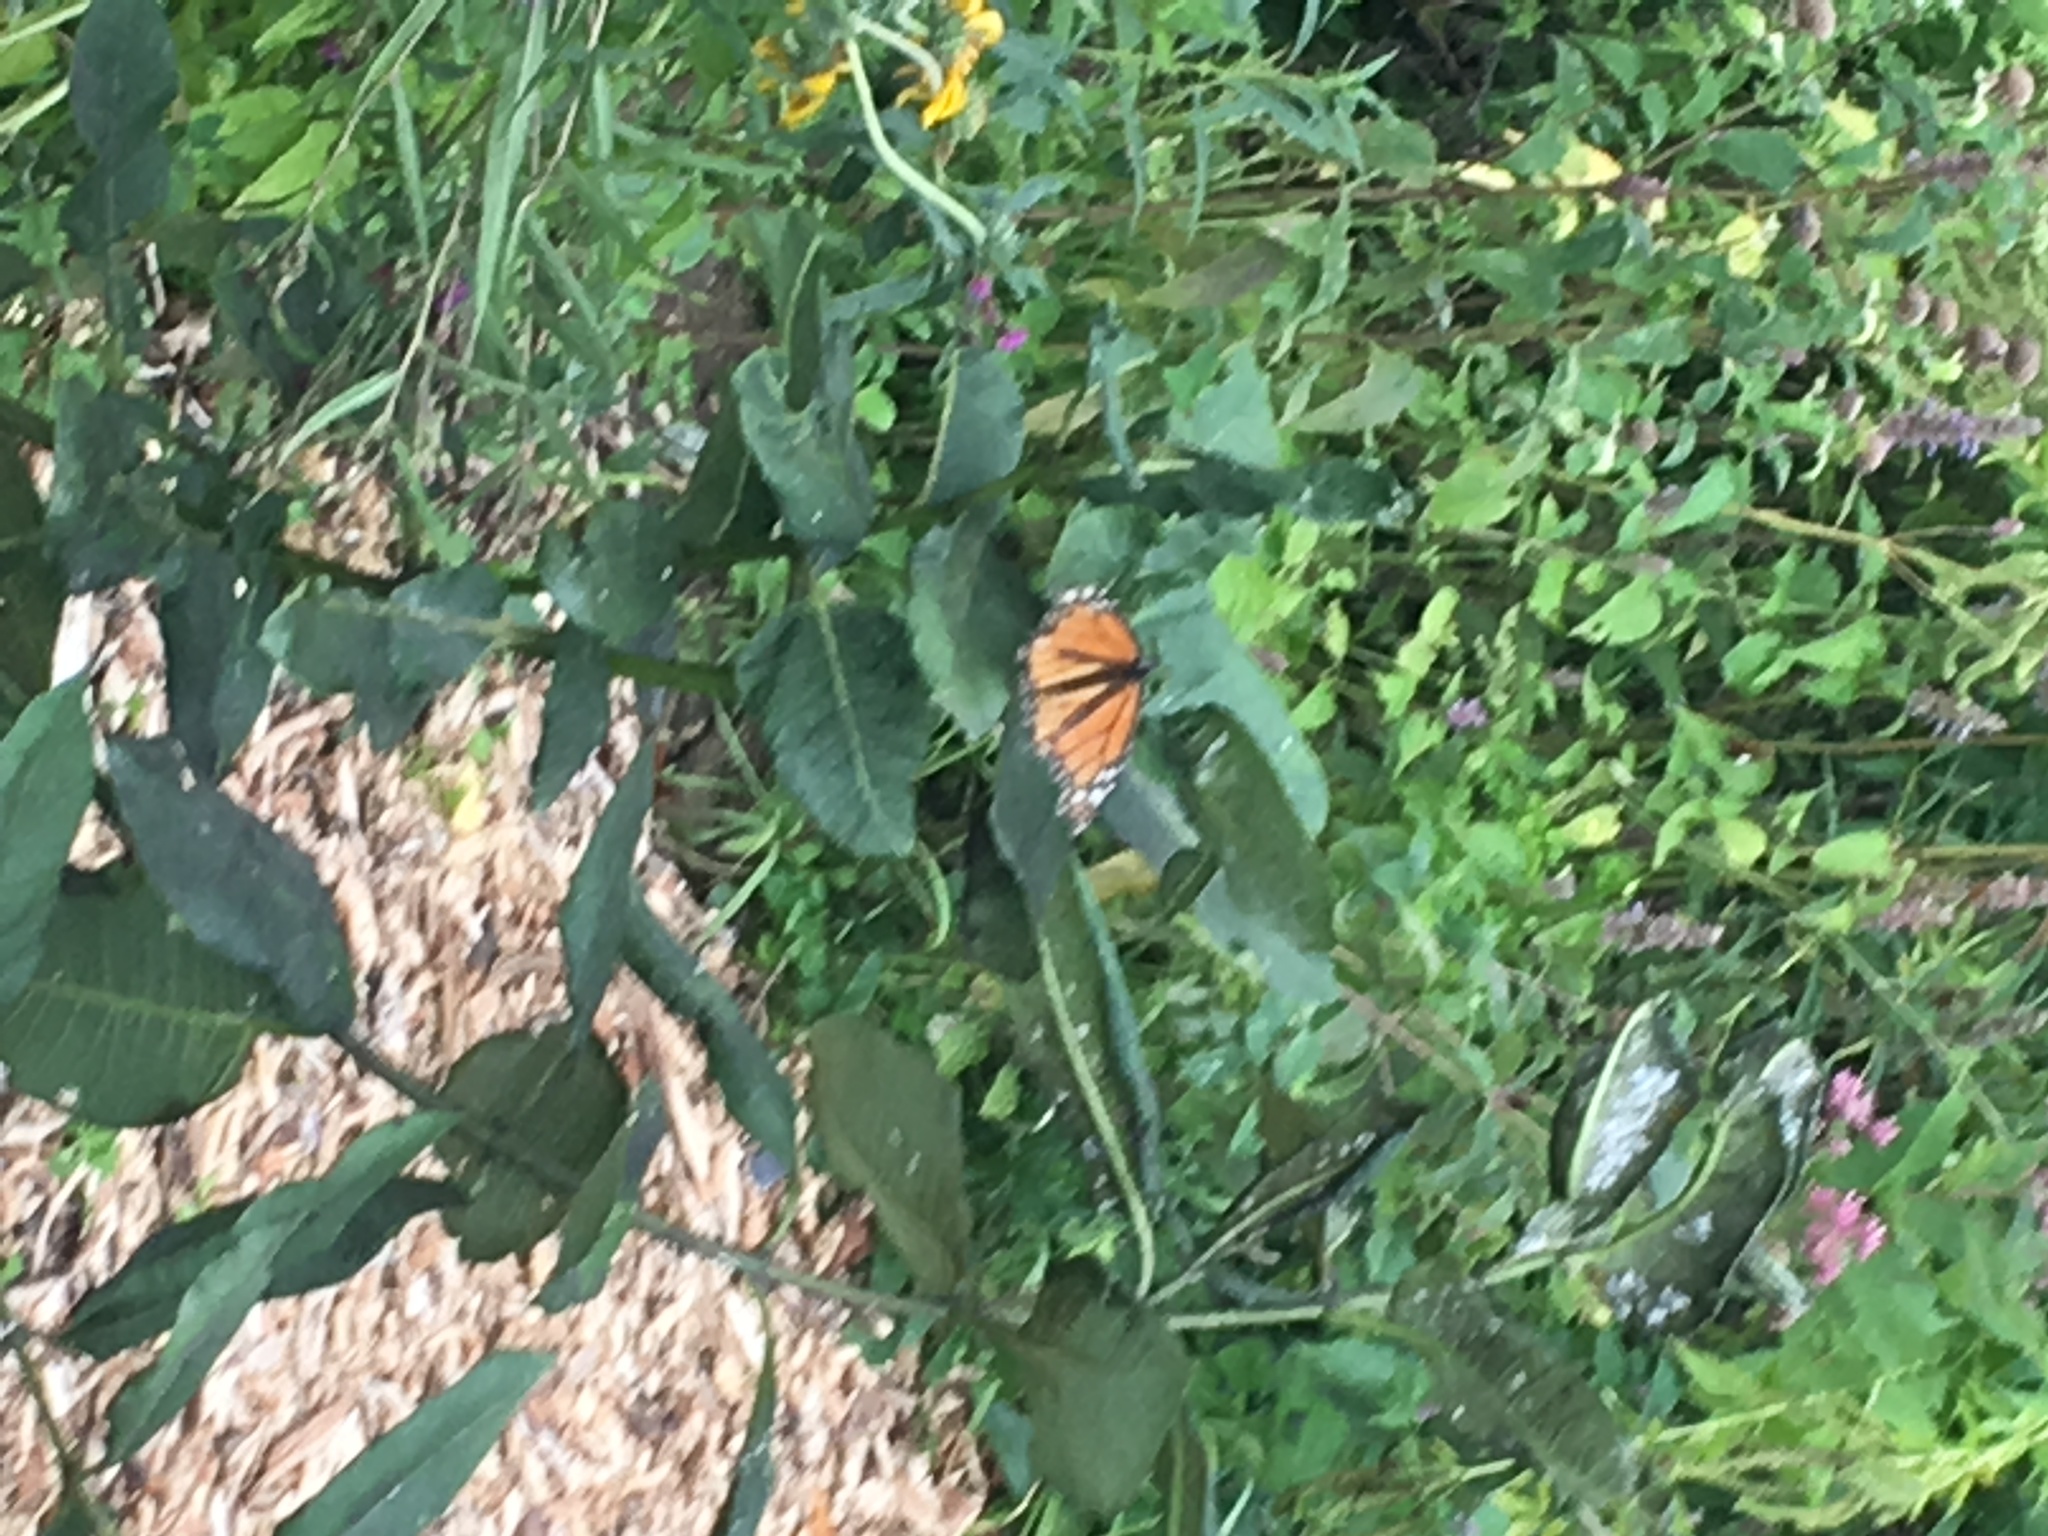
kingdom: Animalia
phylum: Arthropoda
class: Insecta
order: Lepidoptera
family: Nymphalidae
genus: Danaus
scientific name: Danaus plexippus
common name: Monarch
